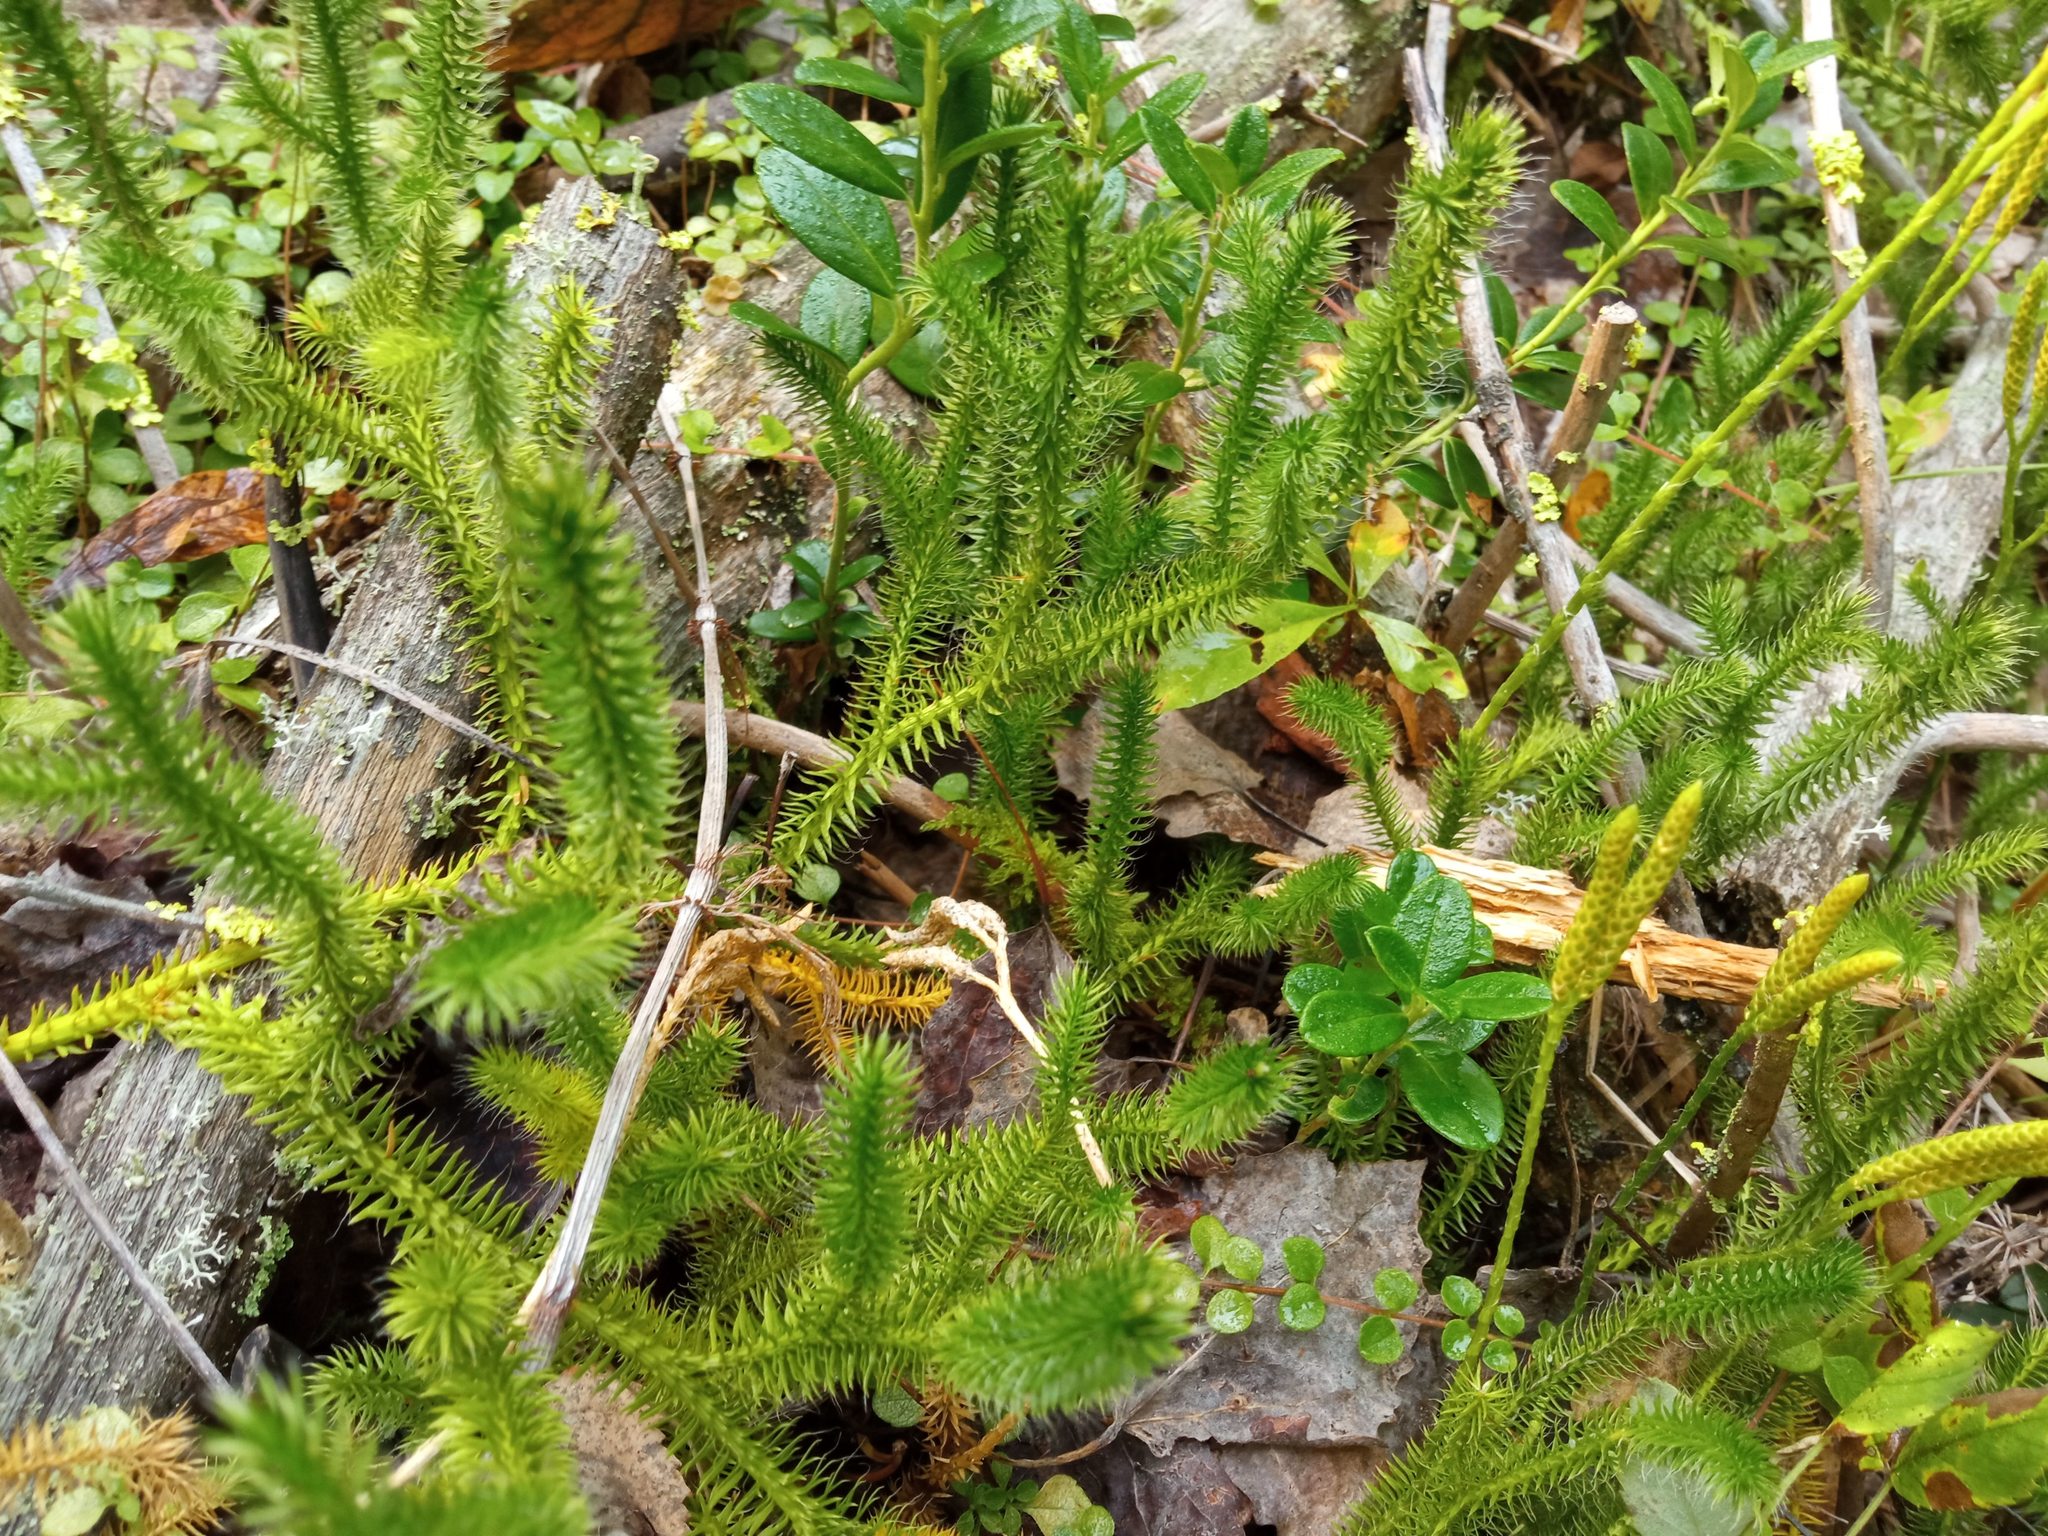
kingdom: Plantae
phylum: Tracheophyta
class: Lycopodiopsida
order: Lycopodiales
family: Lycopodiaceae
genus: Lycopodium
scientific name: Lycopodium clavatum
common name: Stag's-horn clubmoss
